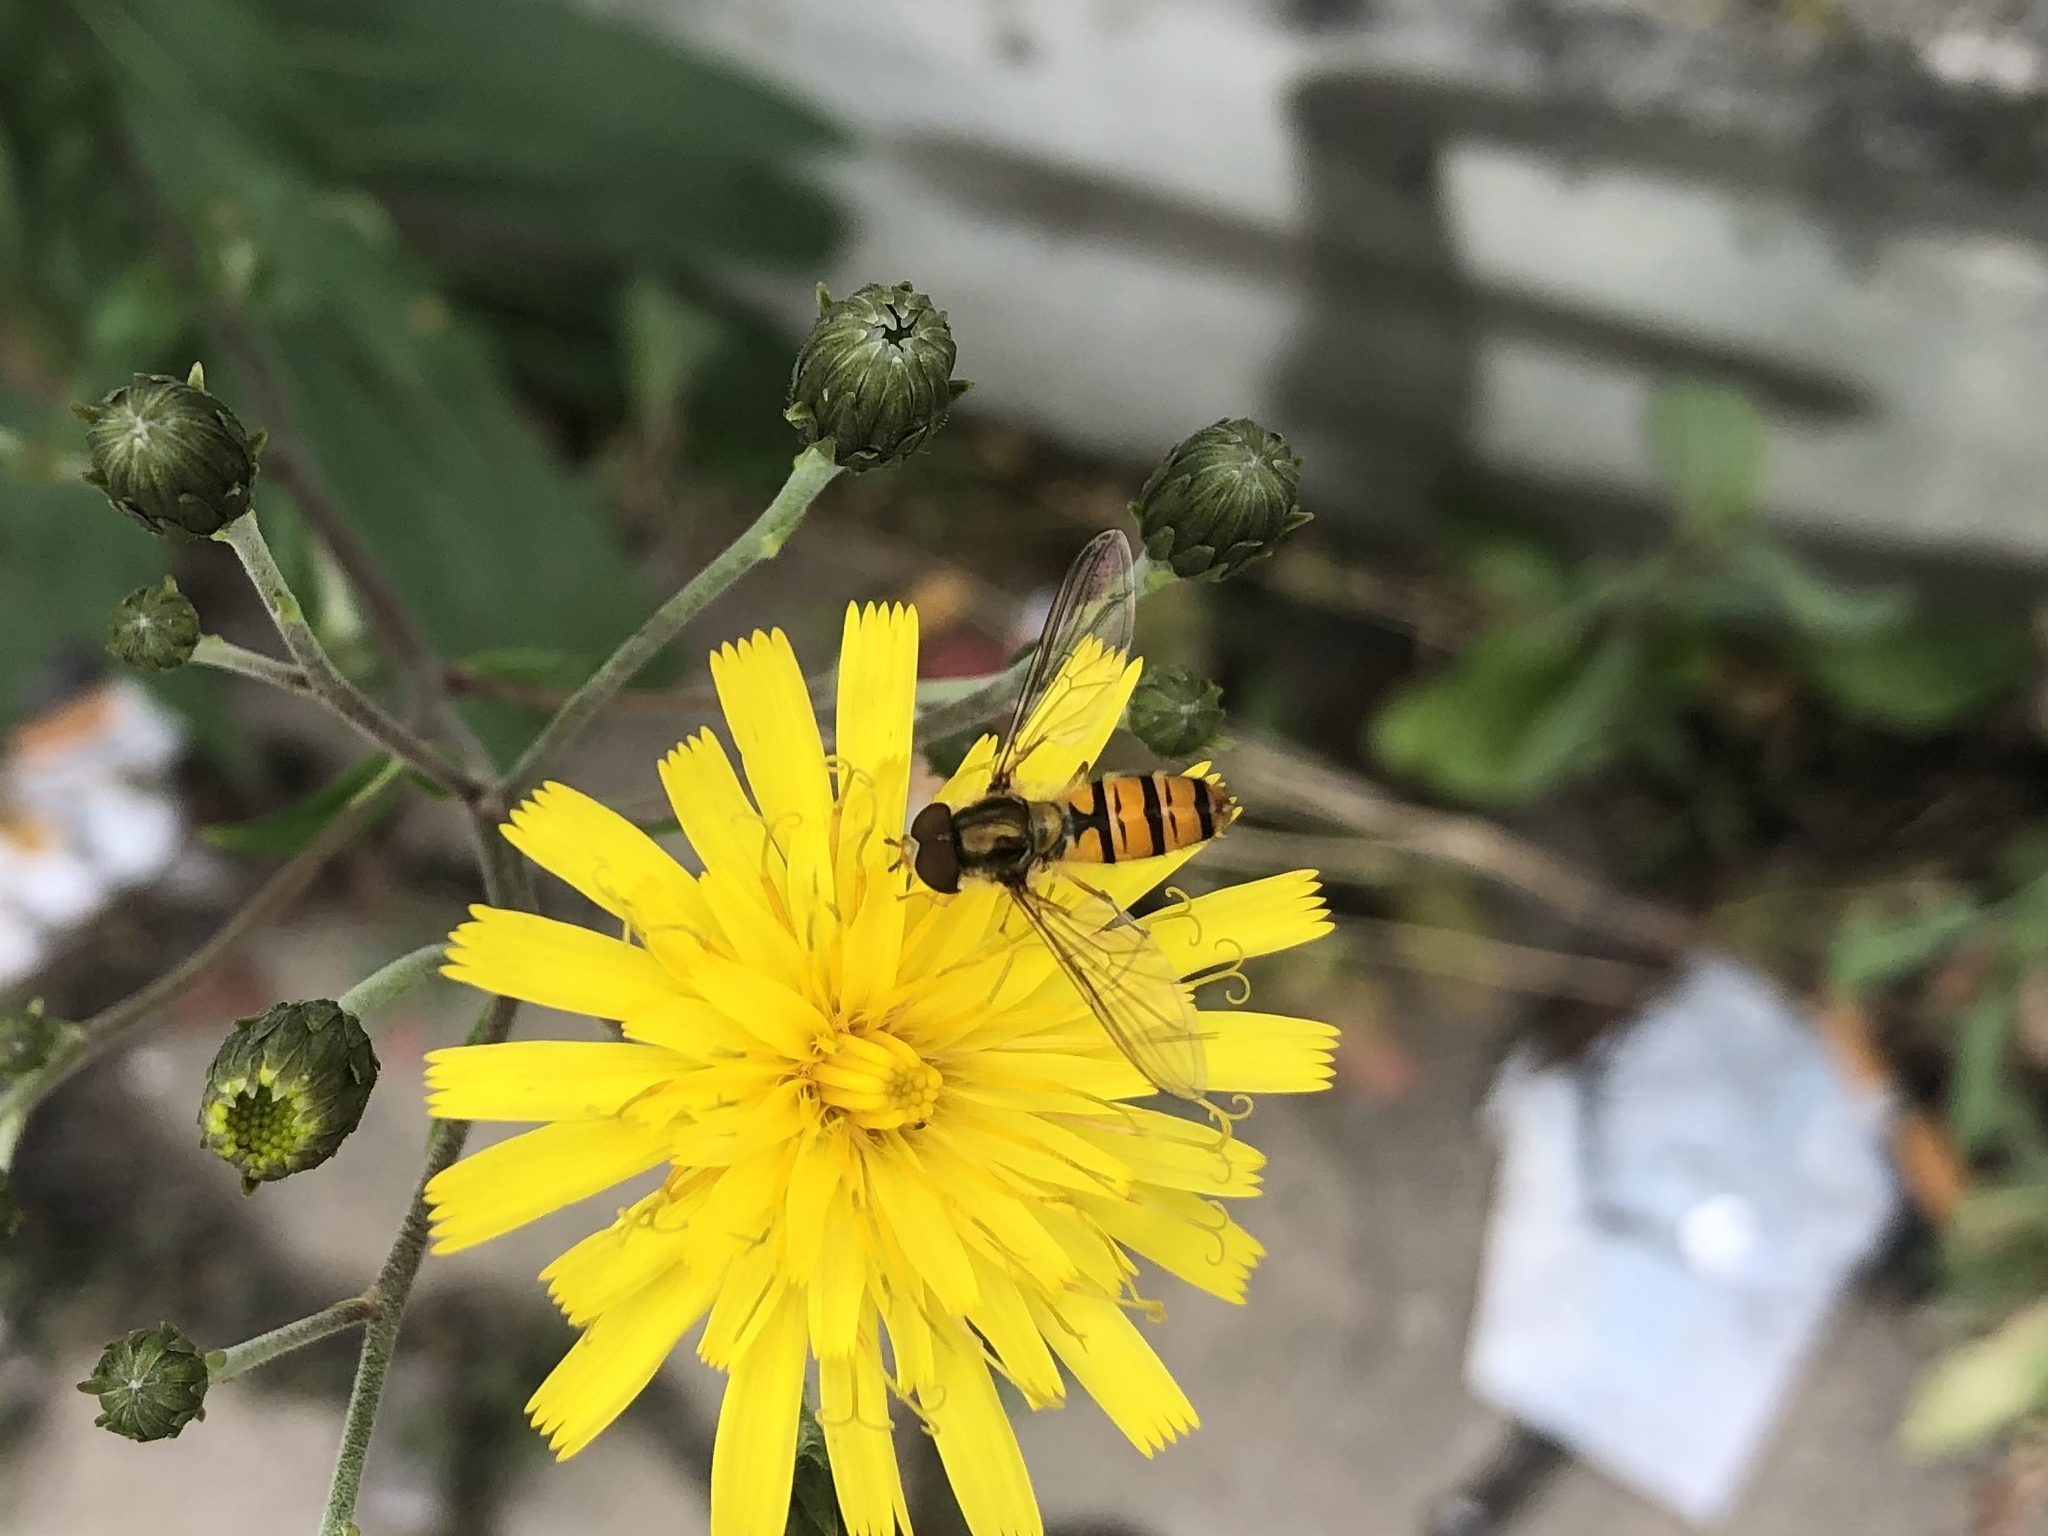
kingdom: Animalia
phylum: Arthropoda
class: Insecta
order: Diptera
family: Syrphidae
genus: Episyrphus
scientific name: Episyrphus balteatus
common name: Marmalade hoverfly
